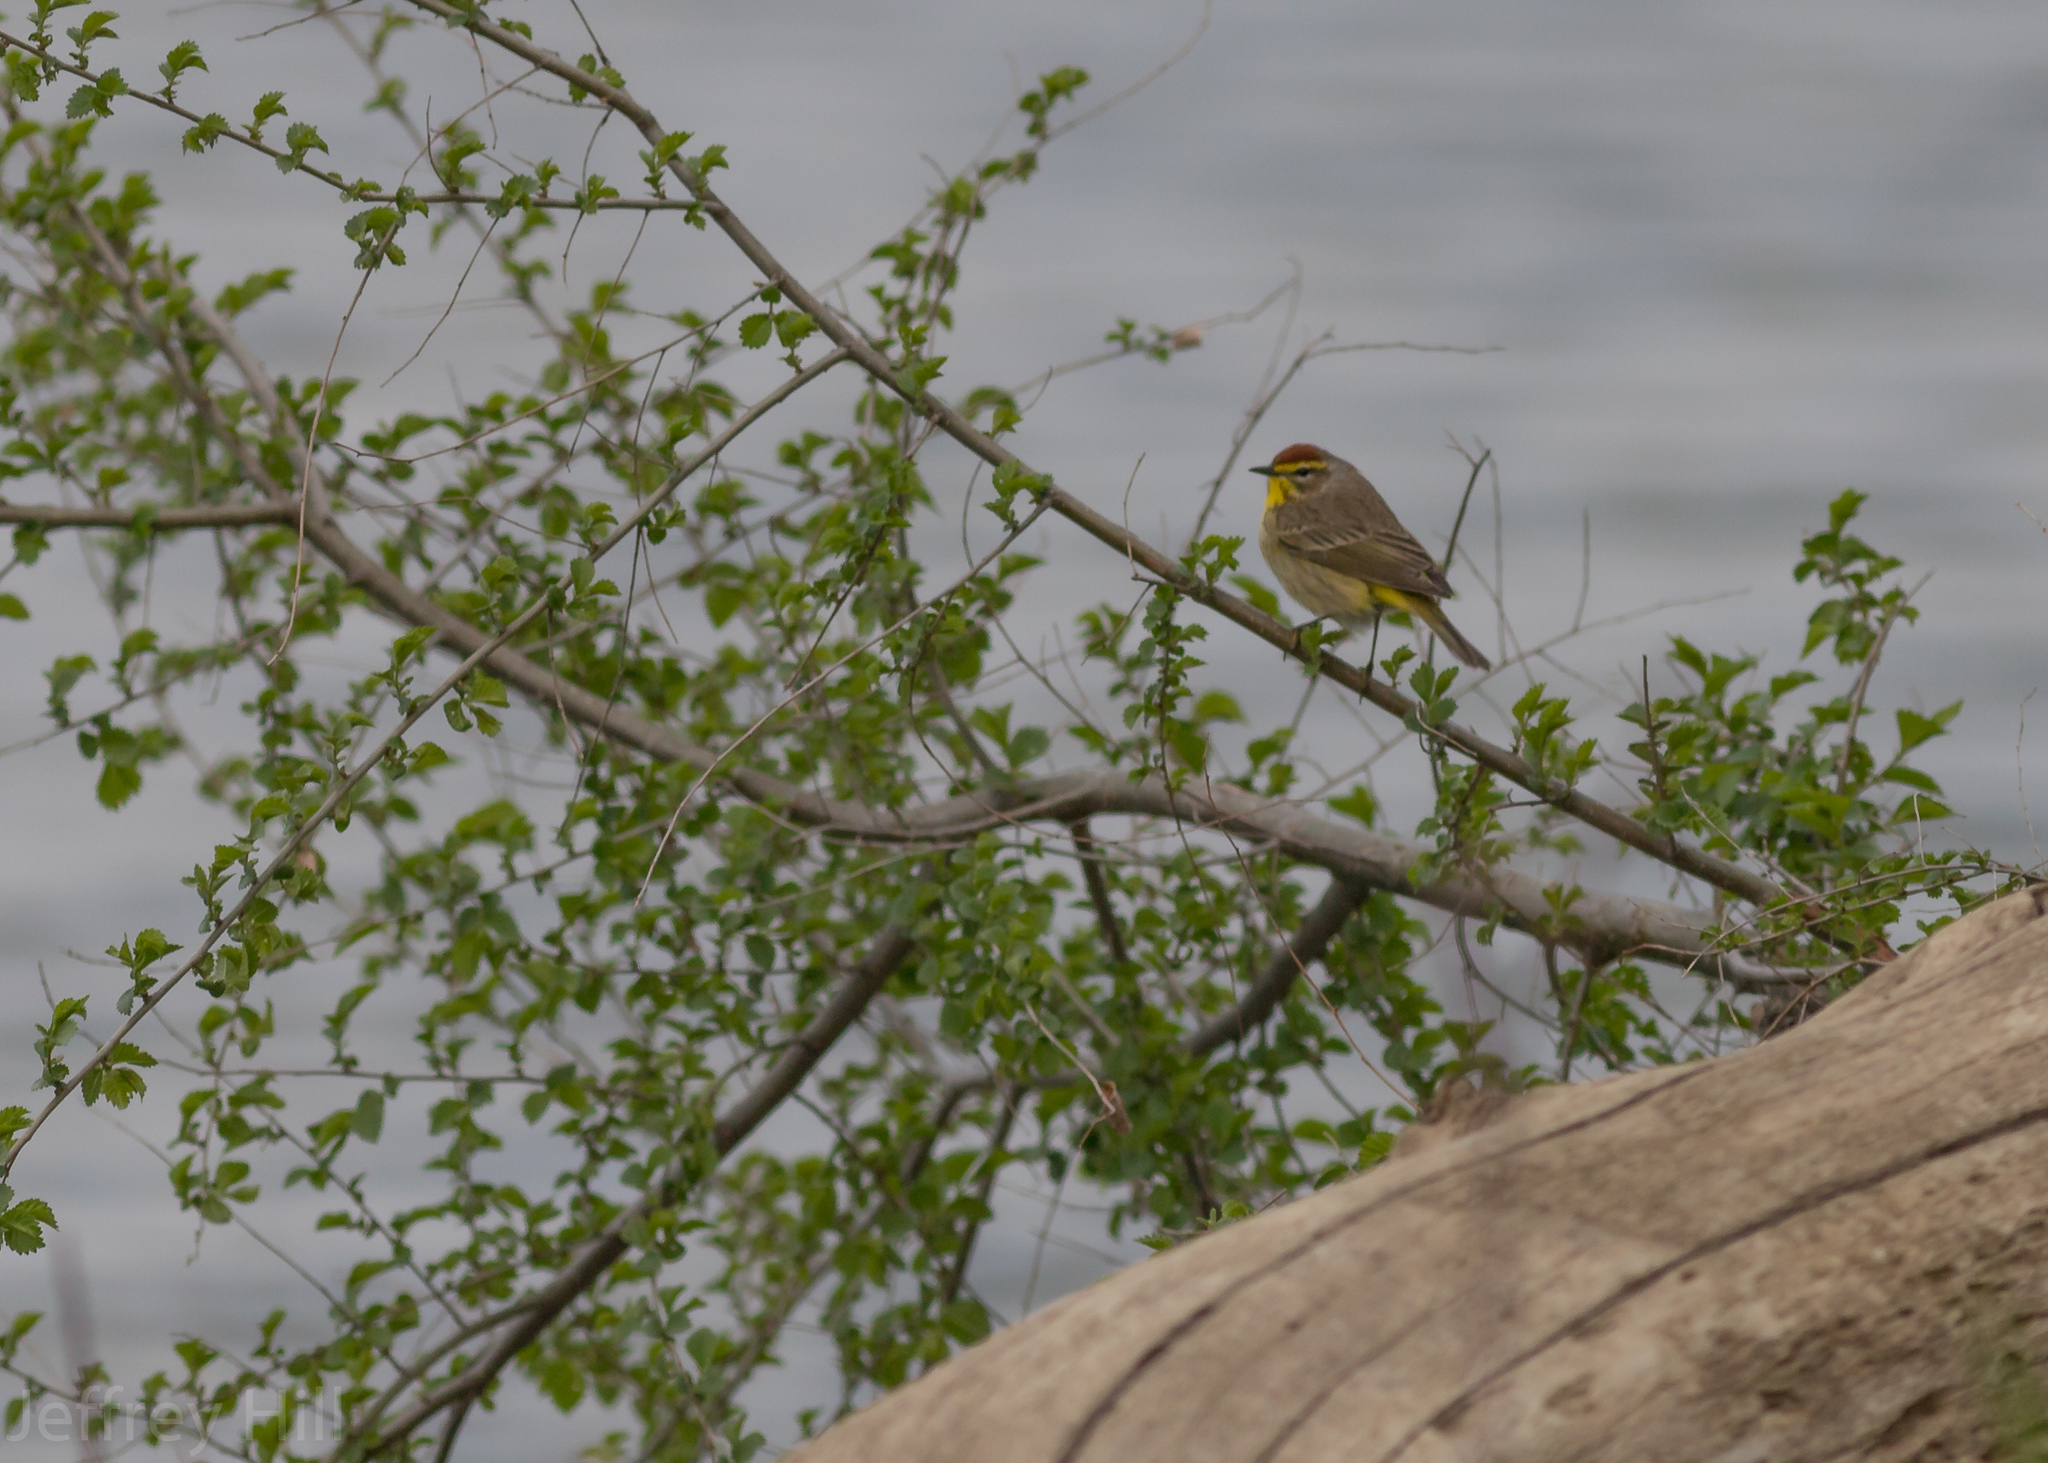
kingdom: Animalia
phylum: Chordata
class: Aves
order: Passeriformes
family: Parulidae
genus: Setophaga
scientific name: Setophaga palmarum
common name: Palm warbler
